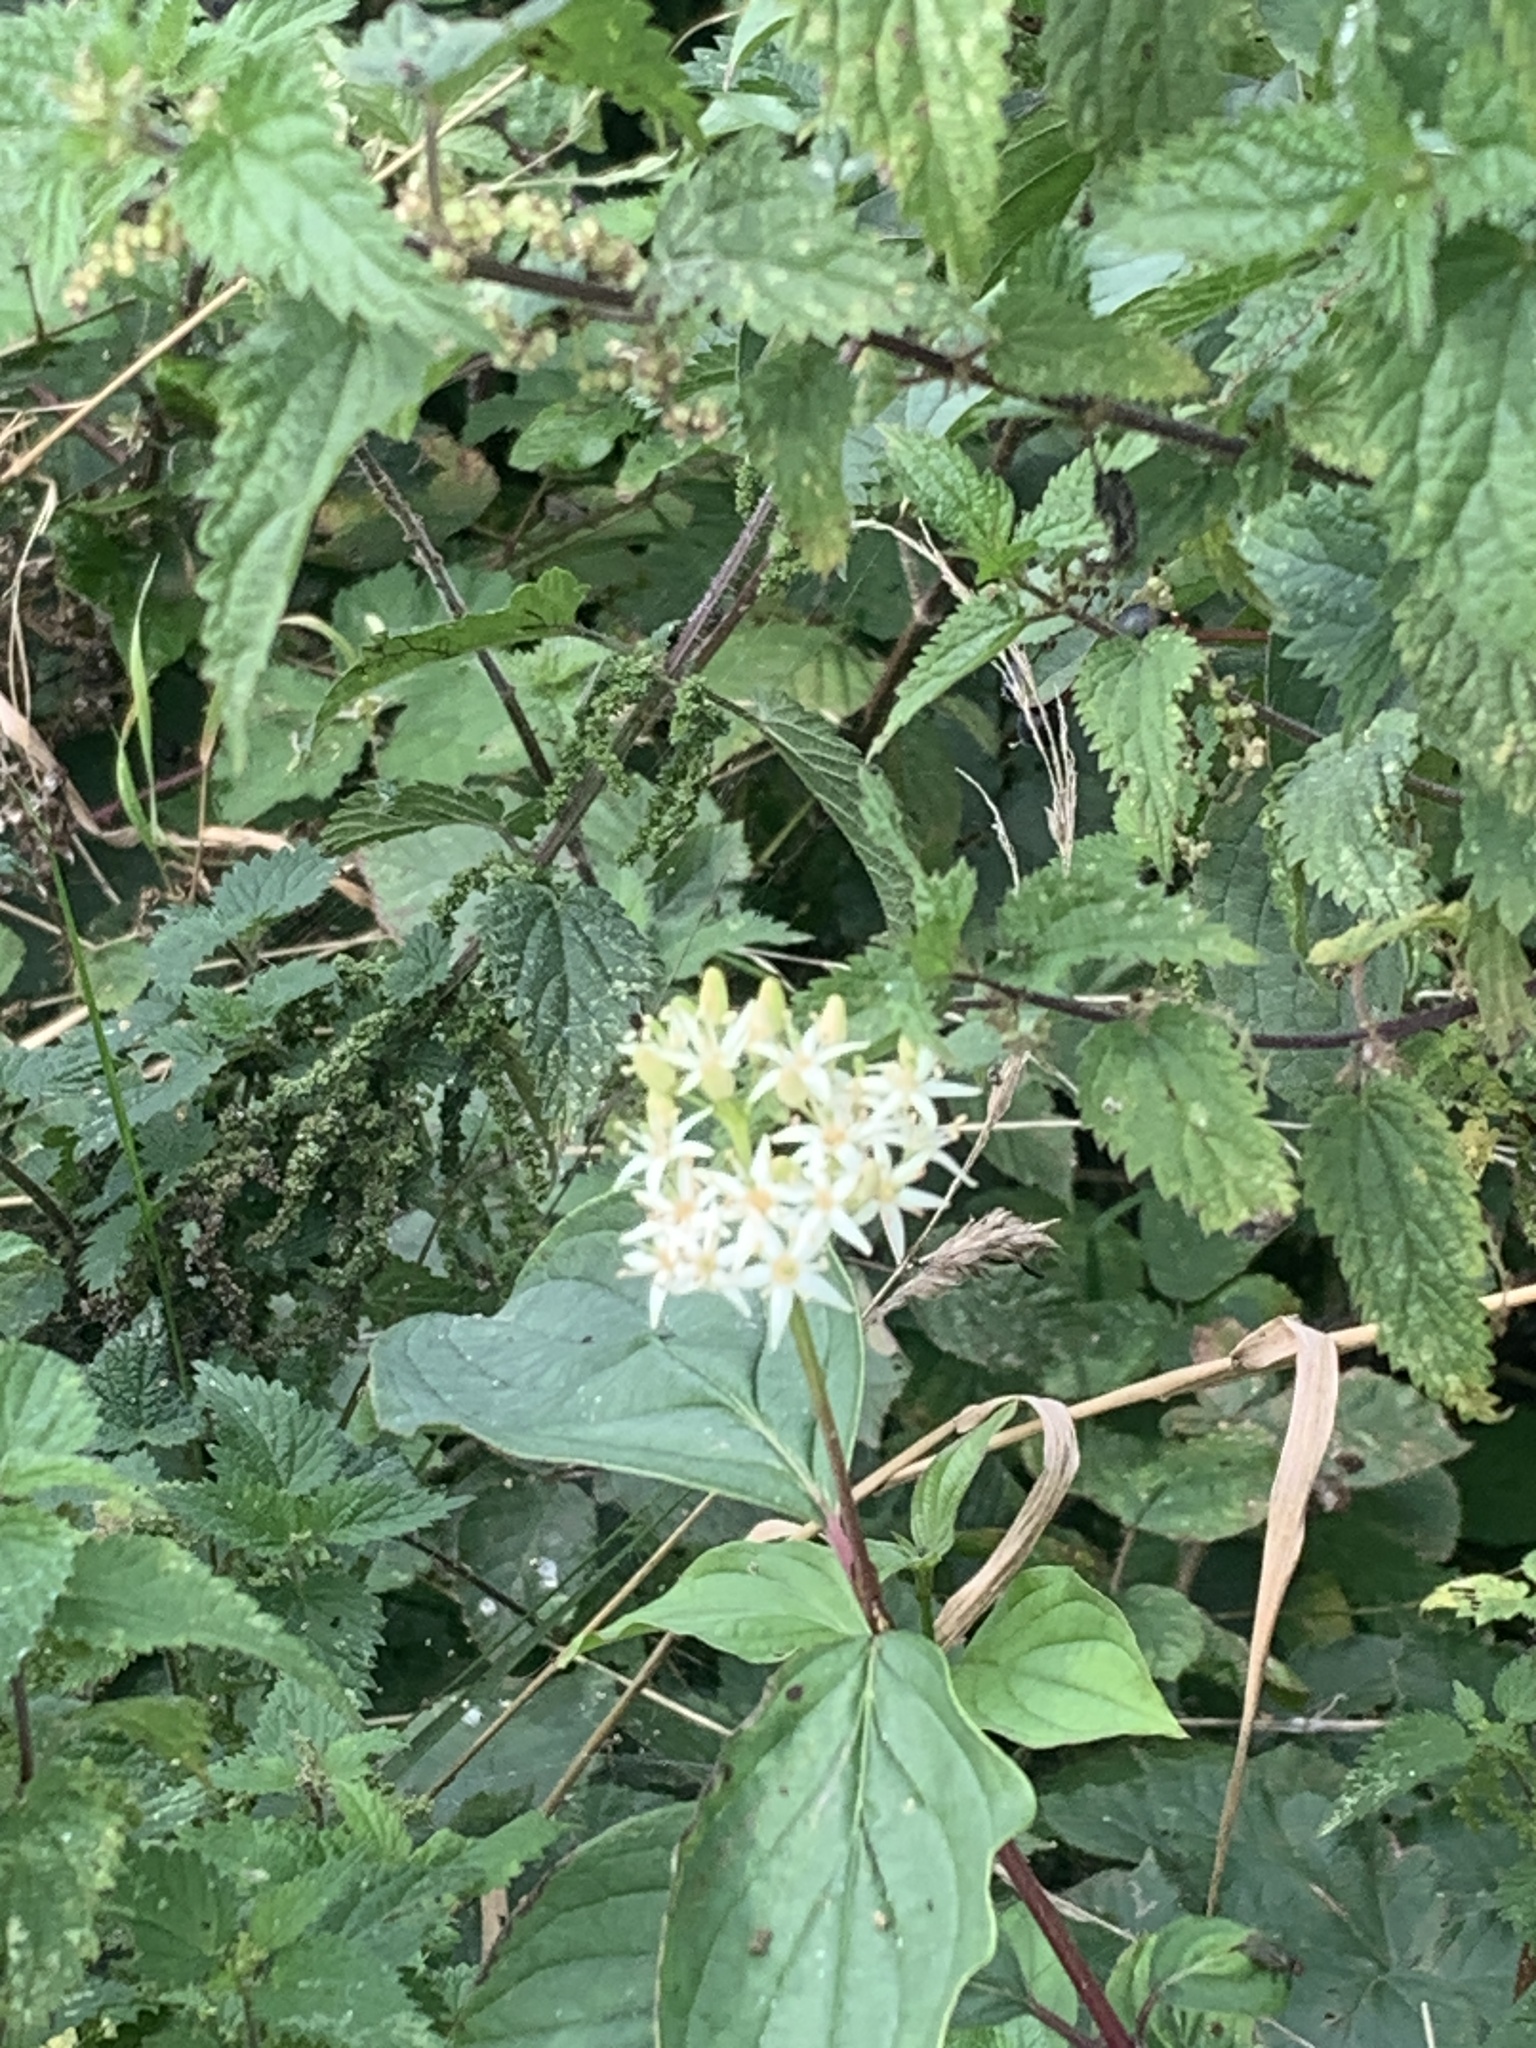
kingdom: Plantae
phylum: Tracheophyta
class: Magnoliopsida
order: Cornales
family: Cornaceae
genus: Cornus
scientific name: Cornus sanguinea
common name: Dogwood
